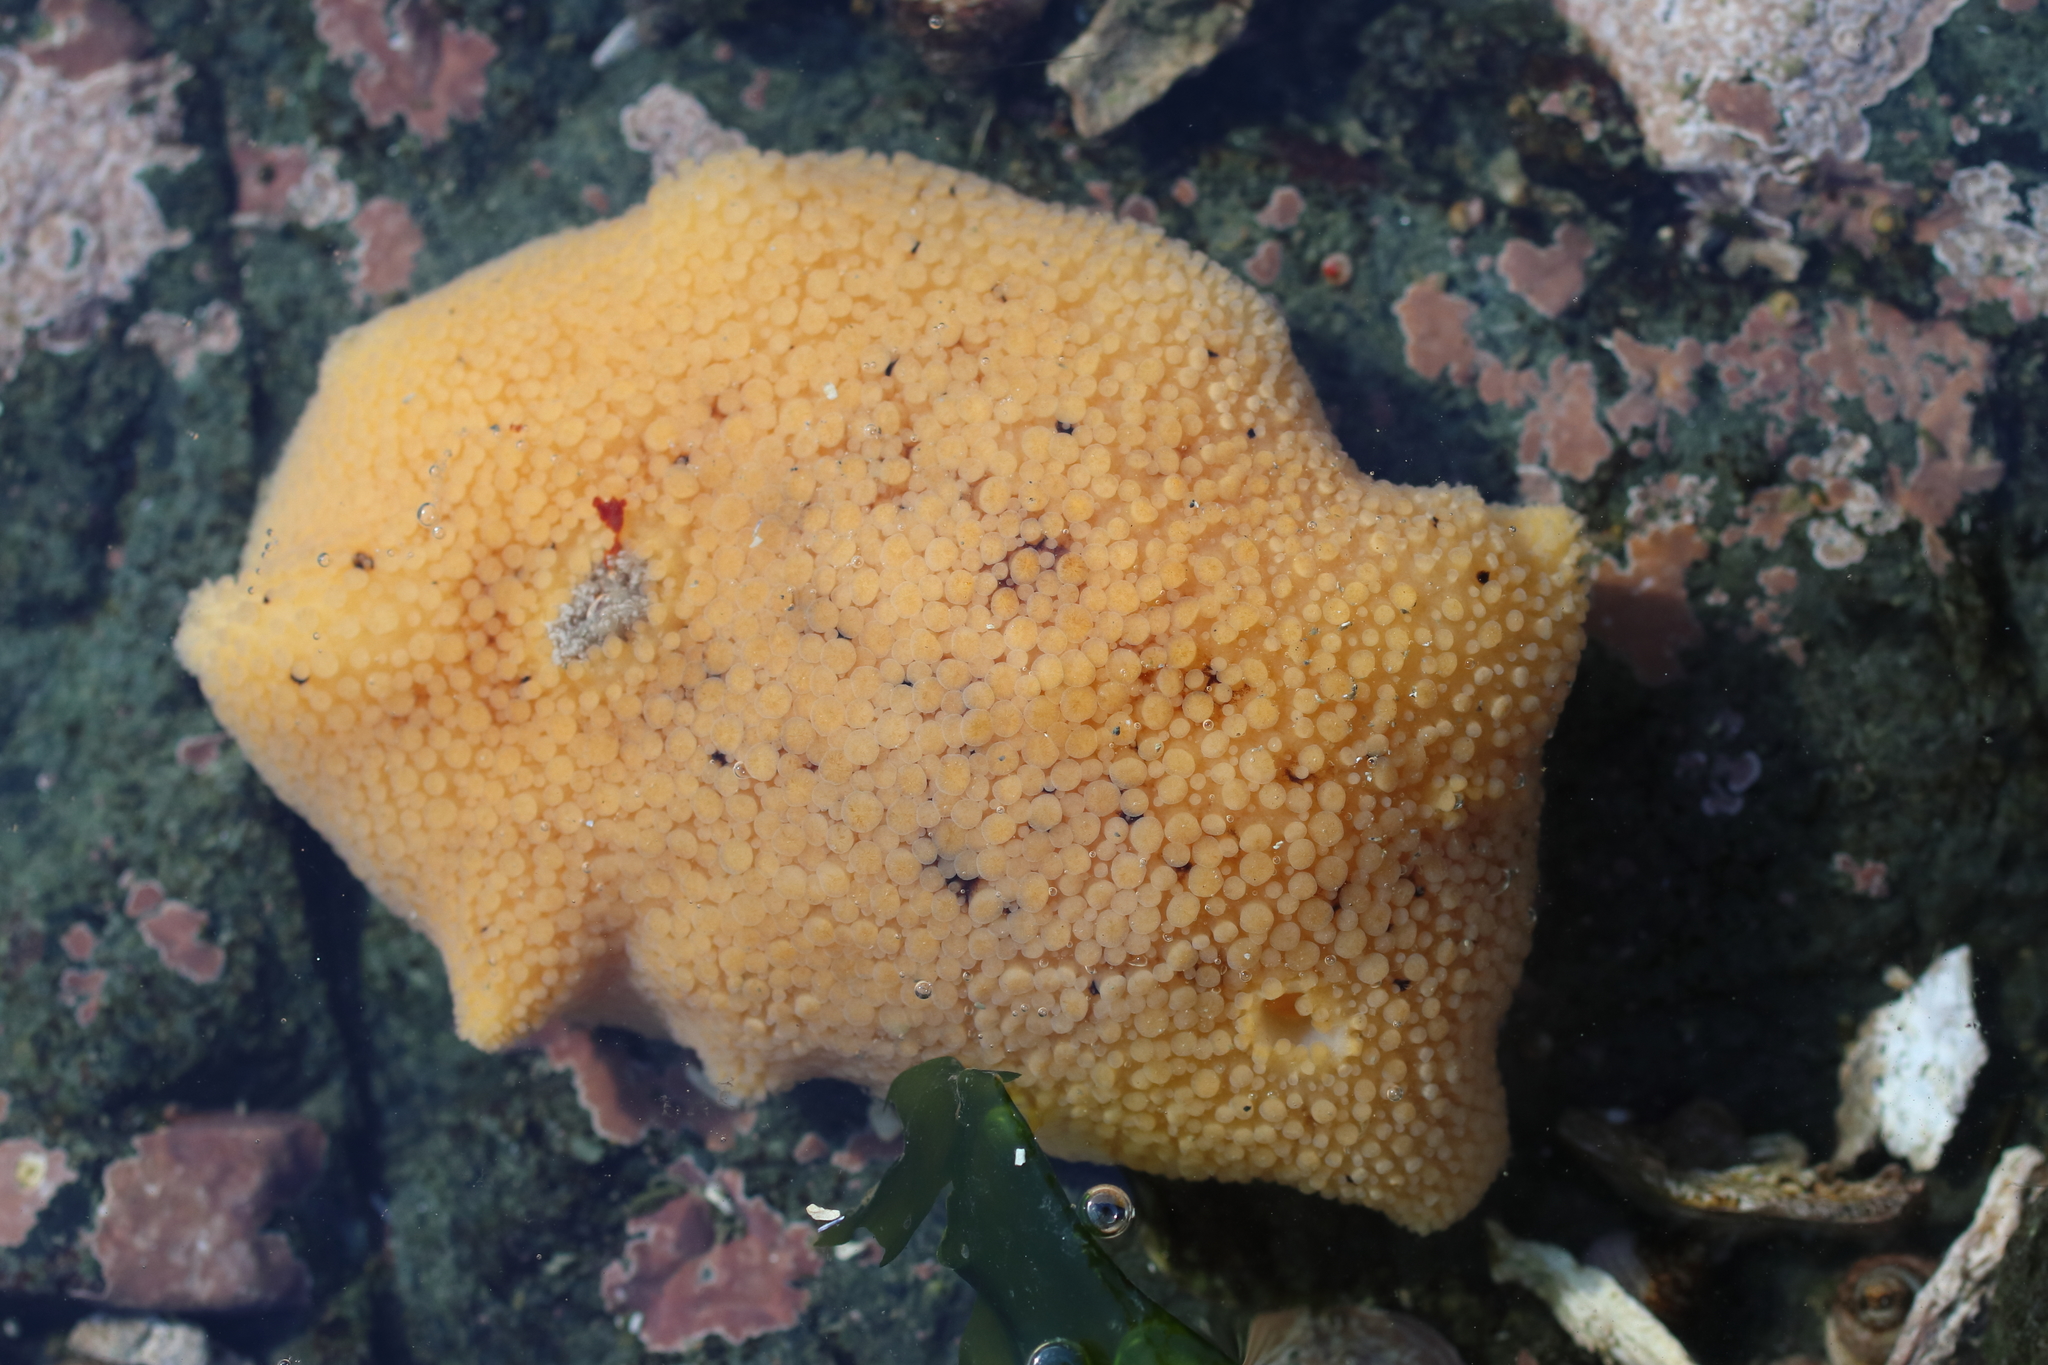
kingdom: Animalia
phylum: Mollusca
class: Gastropoda
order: Nudibranchia
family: Discodorididae
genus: Peltodoris
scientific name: Peltodoris nobilis
